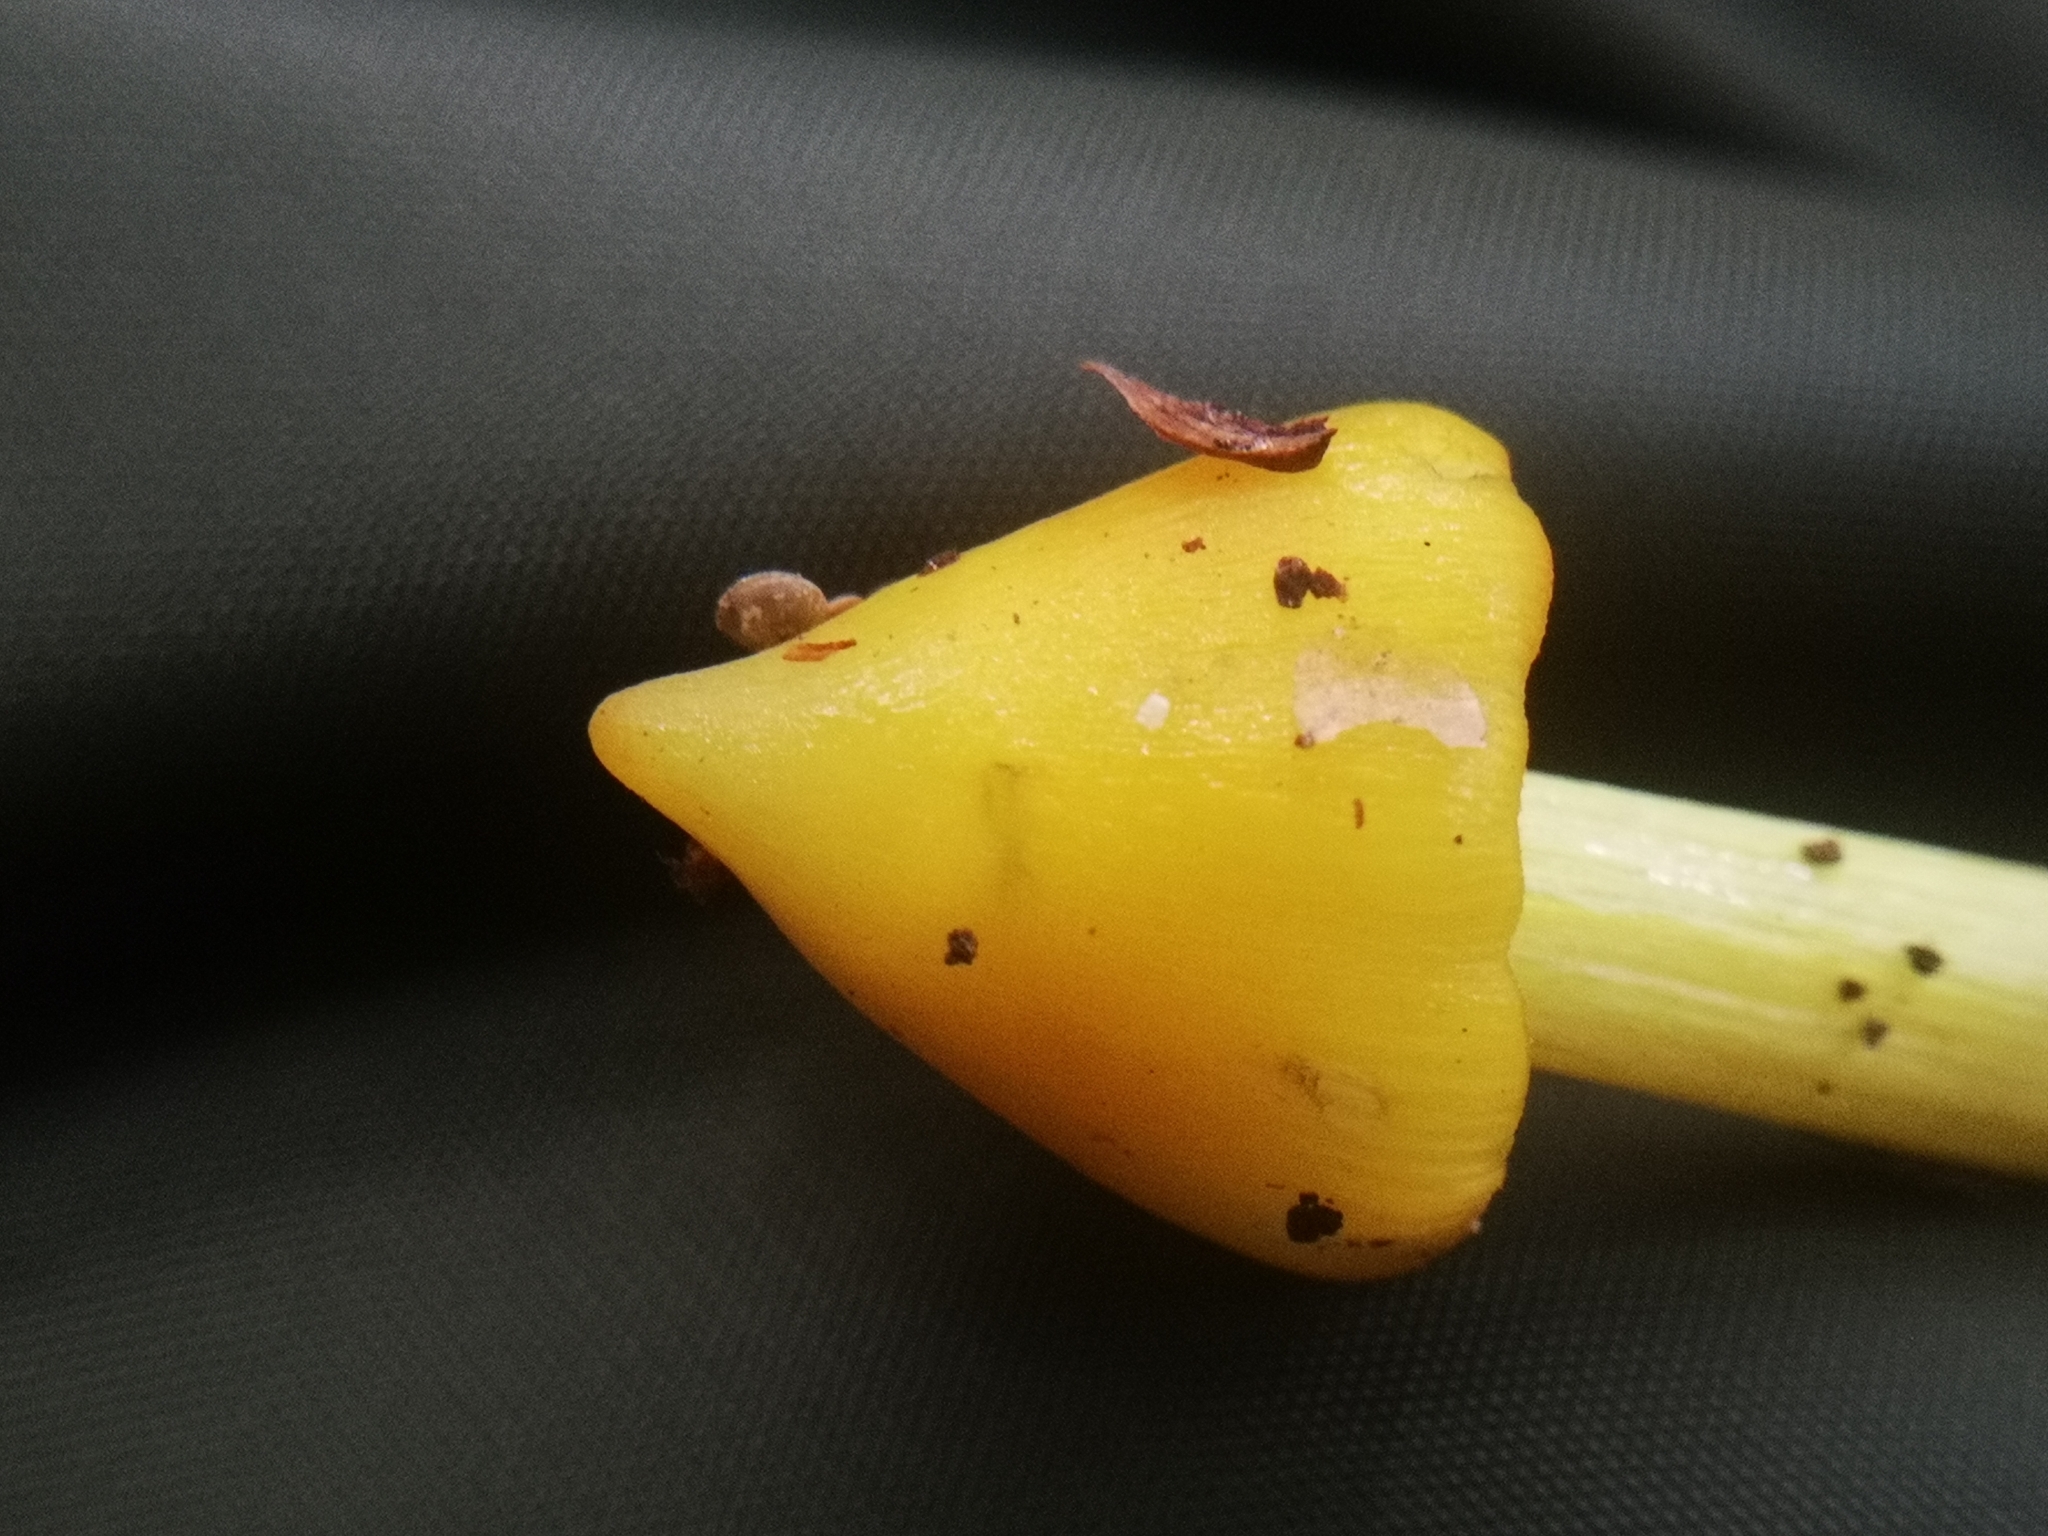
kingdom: Fungi
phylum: Basidiomycota
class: Agaricomycetes
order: Agaricales
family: Hygrophoraceae
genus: Hygrocybe
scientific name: Hygrocybe conica
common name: Blackening wax-cap
